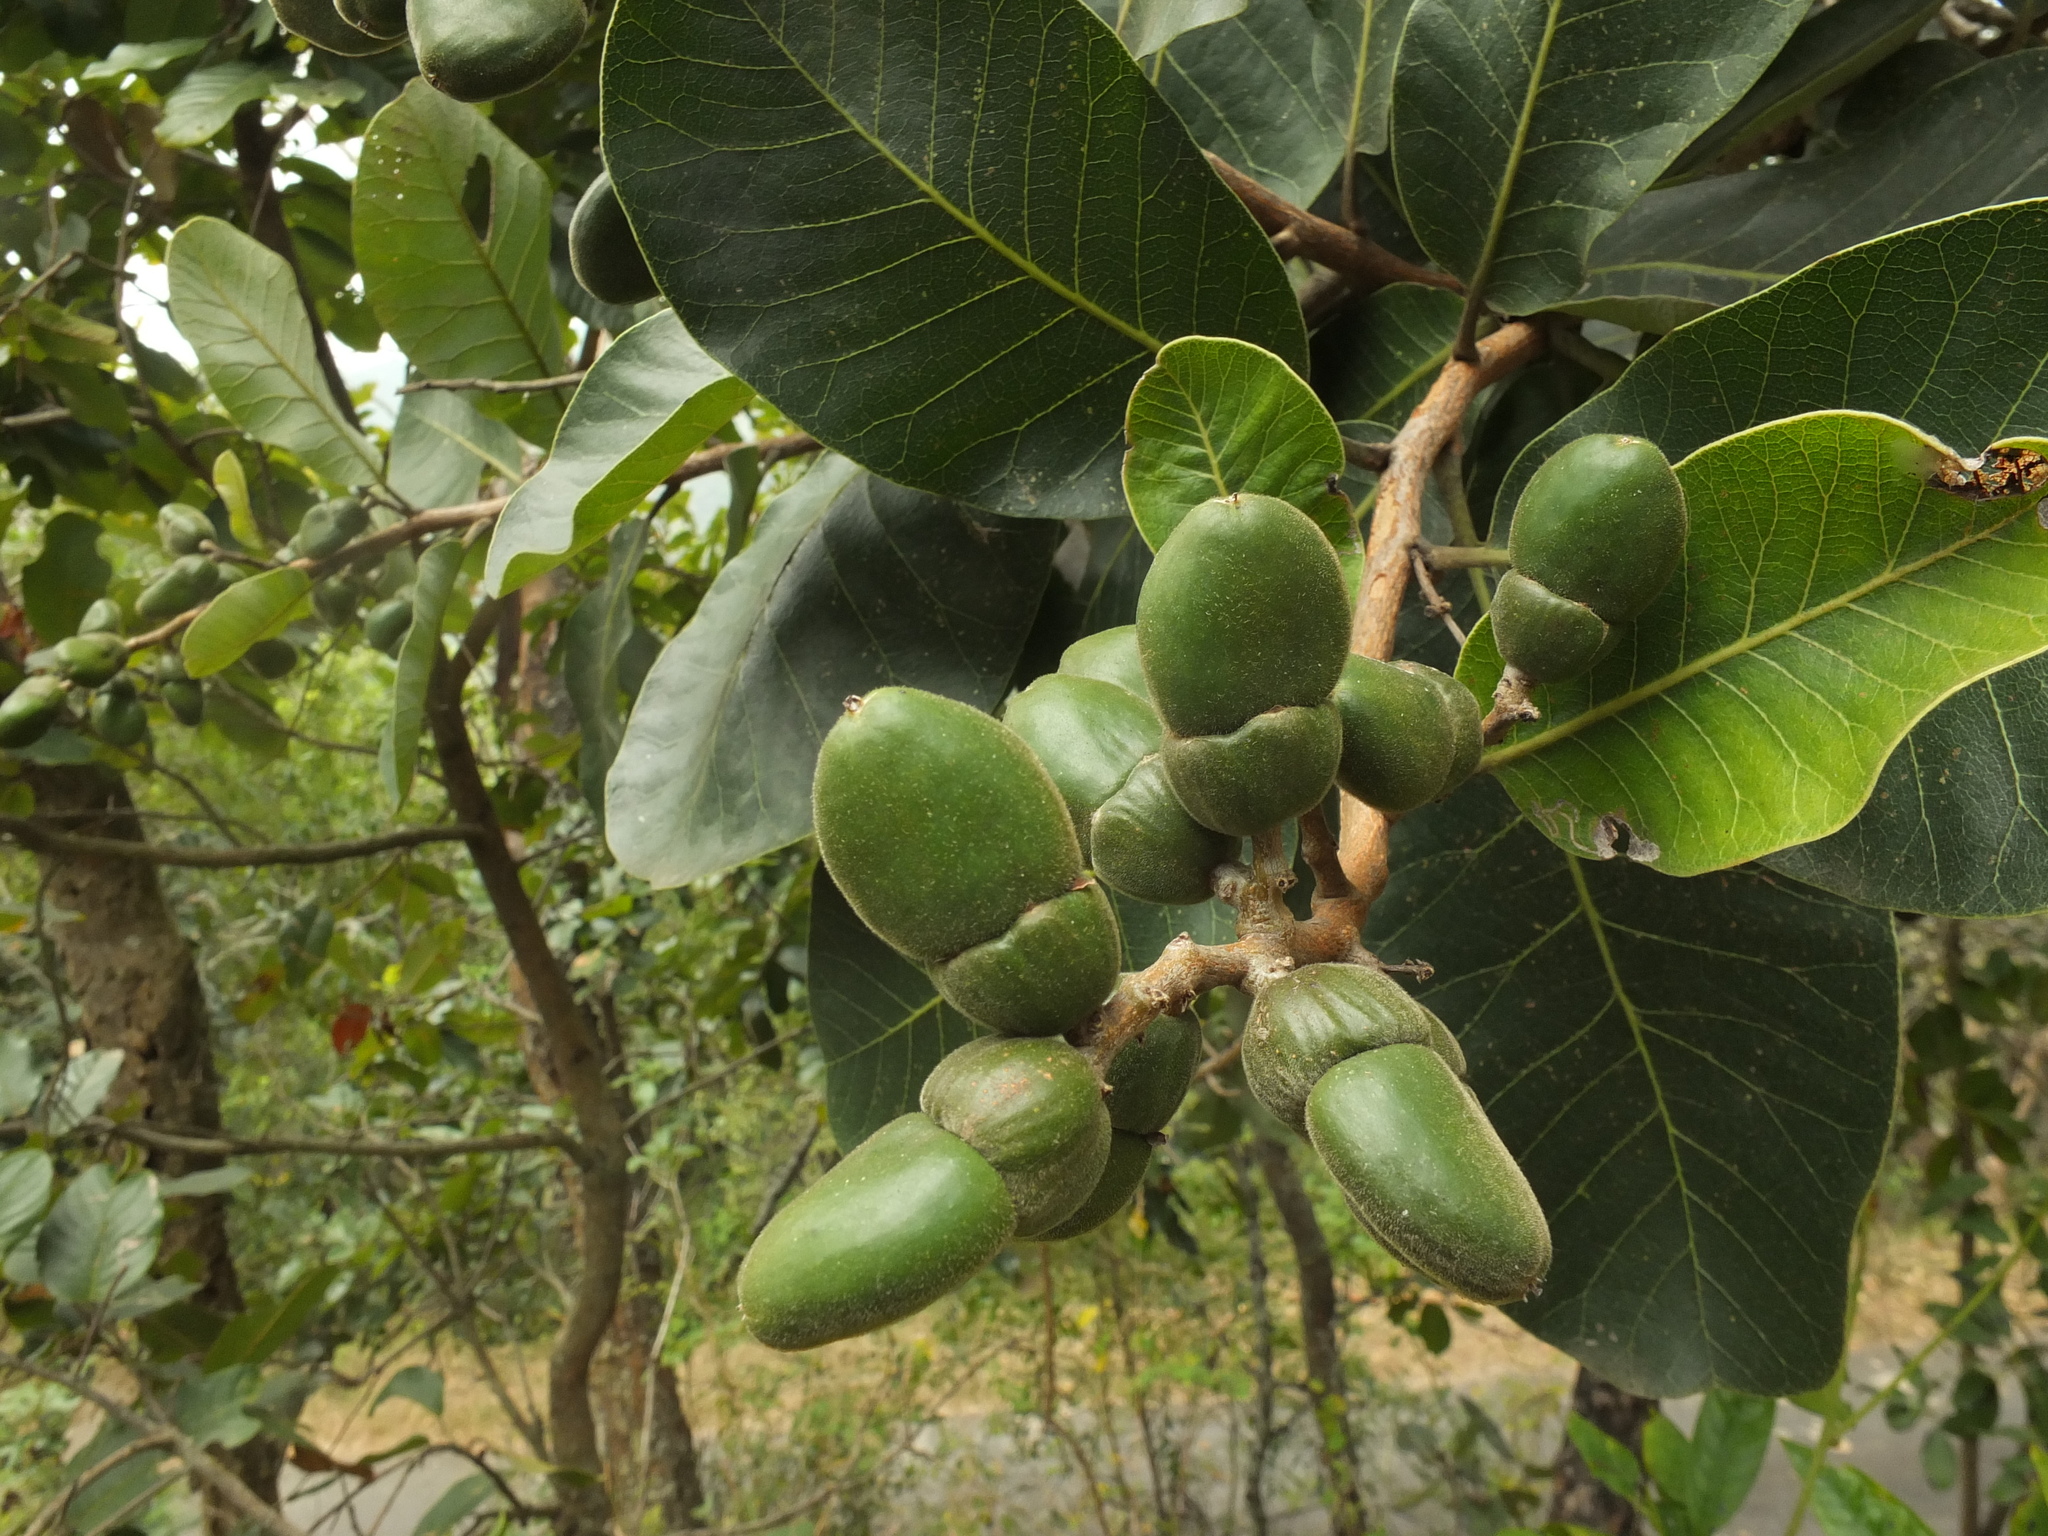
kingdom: Plantae
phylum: Tracheophyta
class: Magnoliopsida
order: Sapindales
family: Anacardiaceae
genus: Semecarpus
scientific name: Semecarpus anacardium
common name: Marking nut-tree
